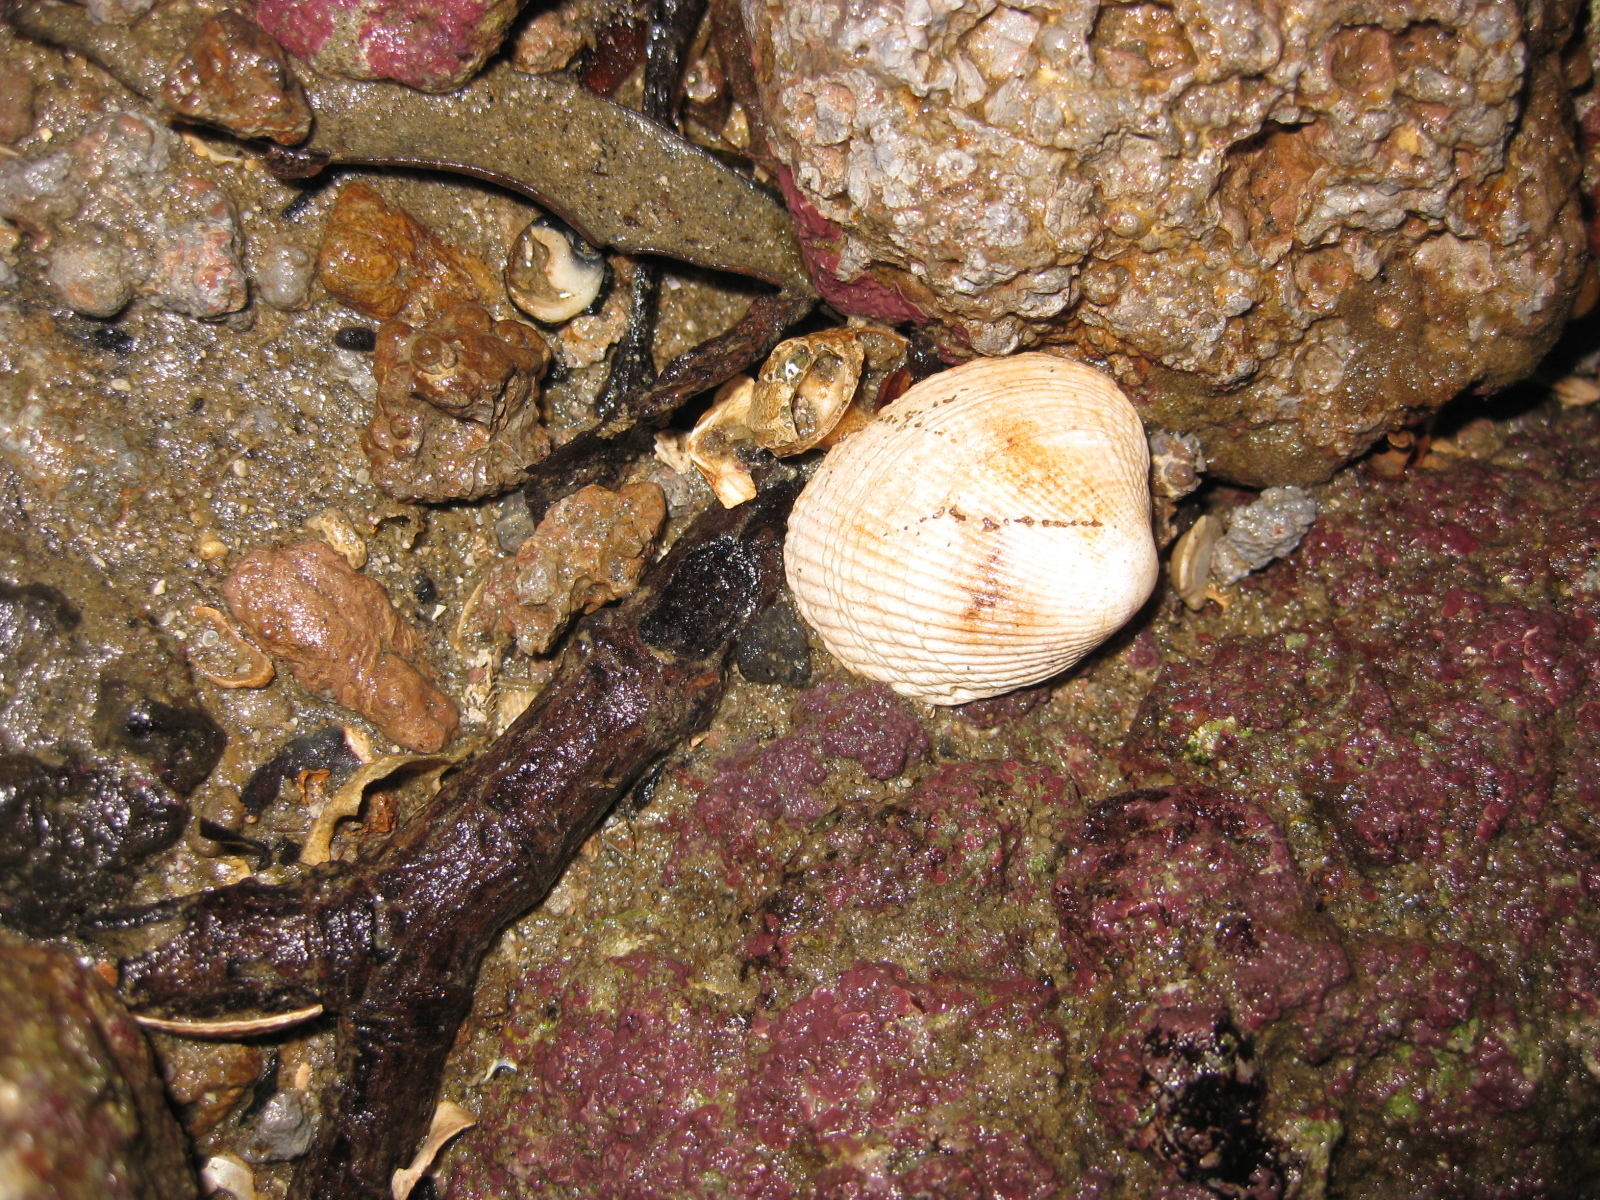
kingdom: Animalia
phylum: Mollusca
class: Bivalvia
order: Venerida
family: Veneridae
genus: Leukoma
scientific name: Leukoma crassicosta
